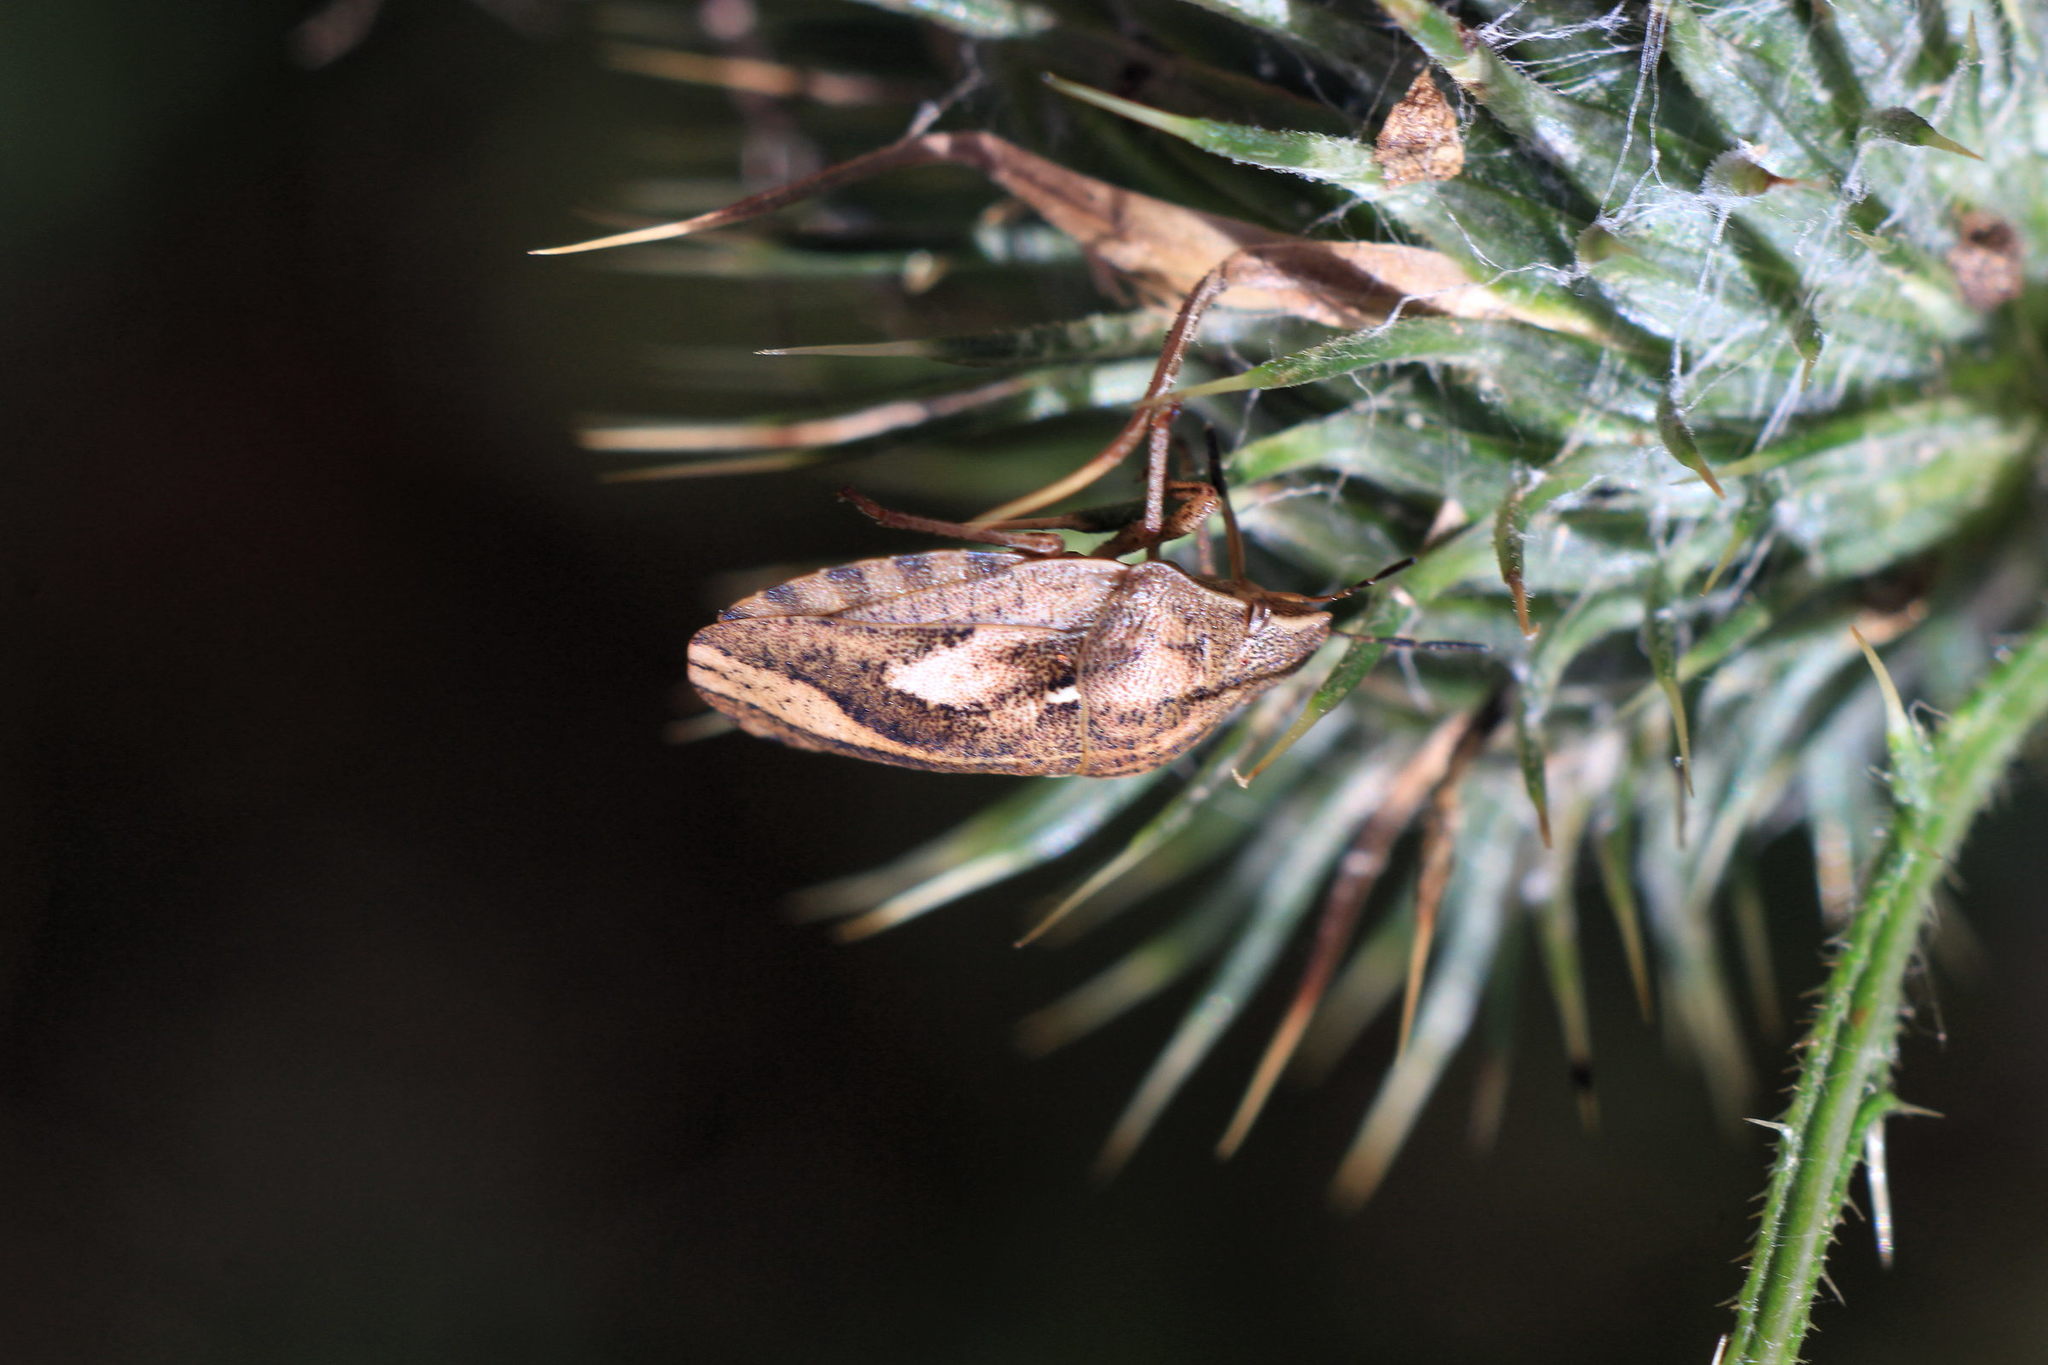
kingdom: Animalia
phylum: Arthropoda
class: Insecta
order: Hemiptera
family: Scutelleridae
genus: Eurygaster
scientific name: Eurygaster maura
